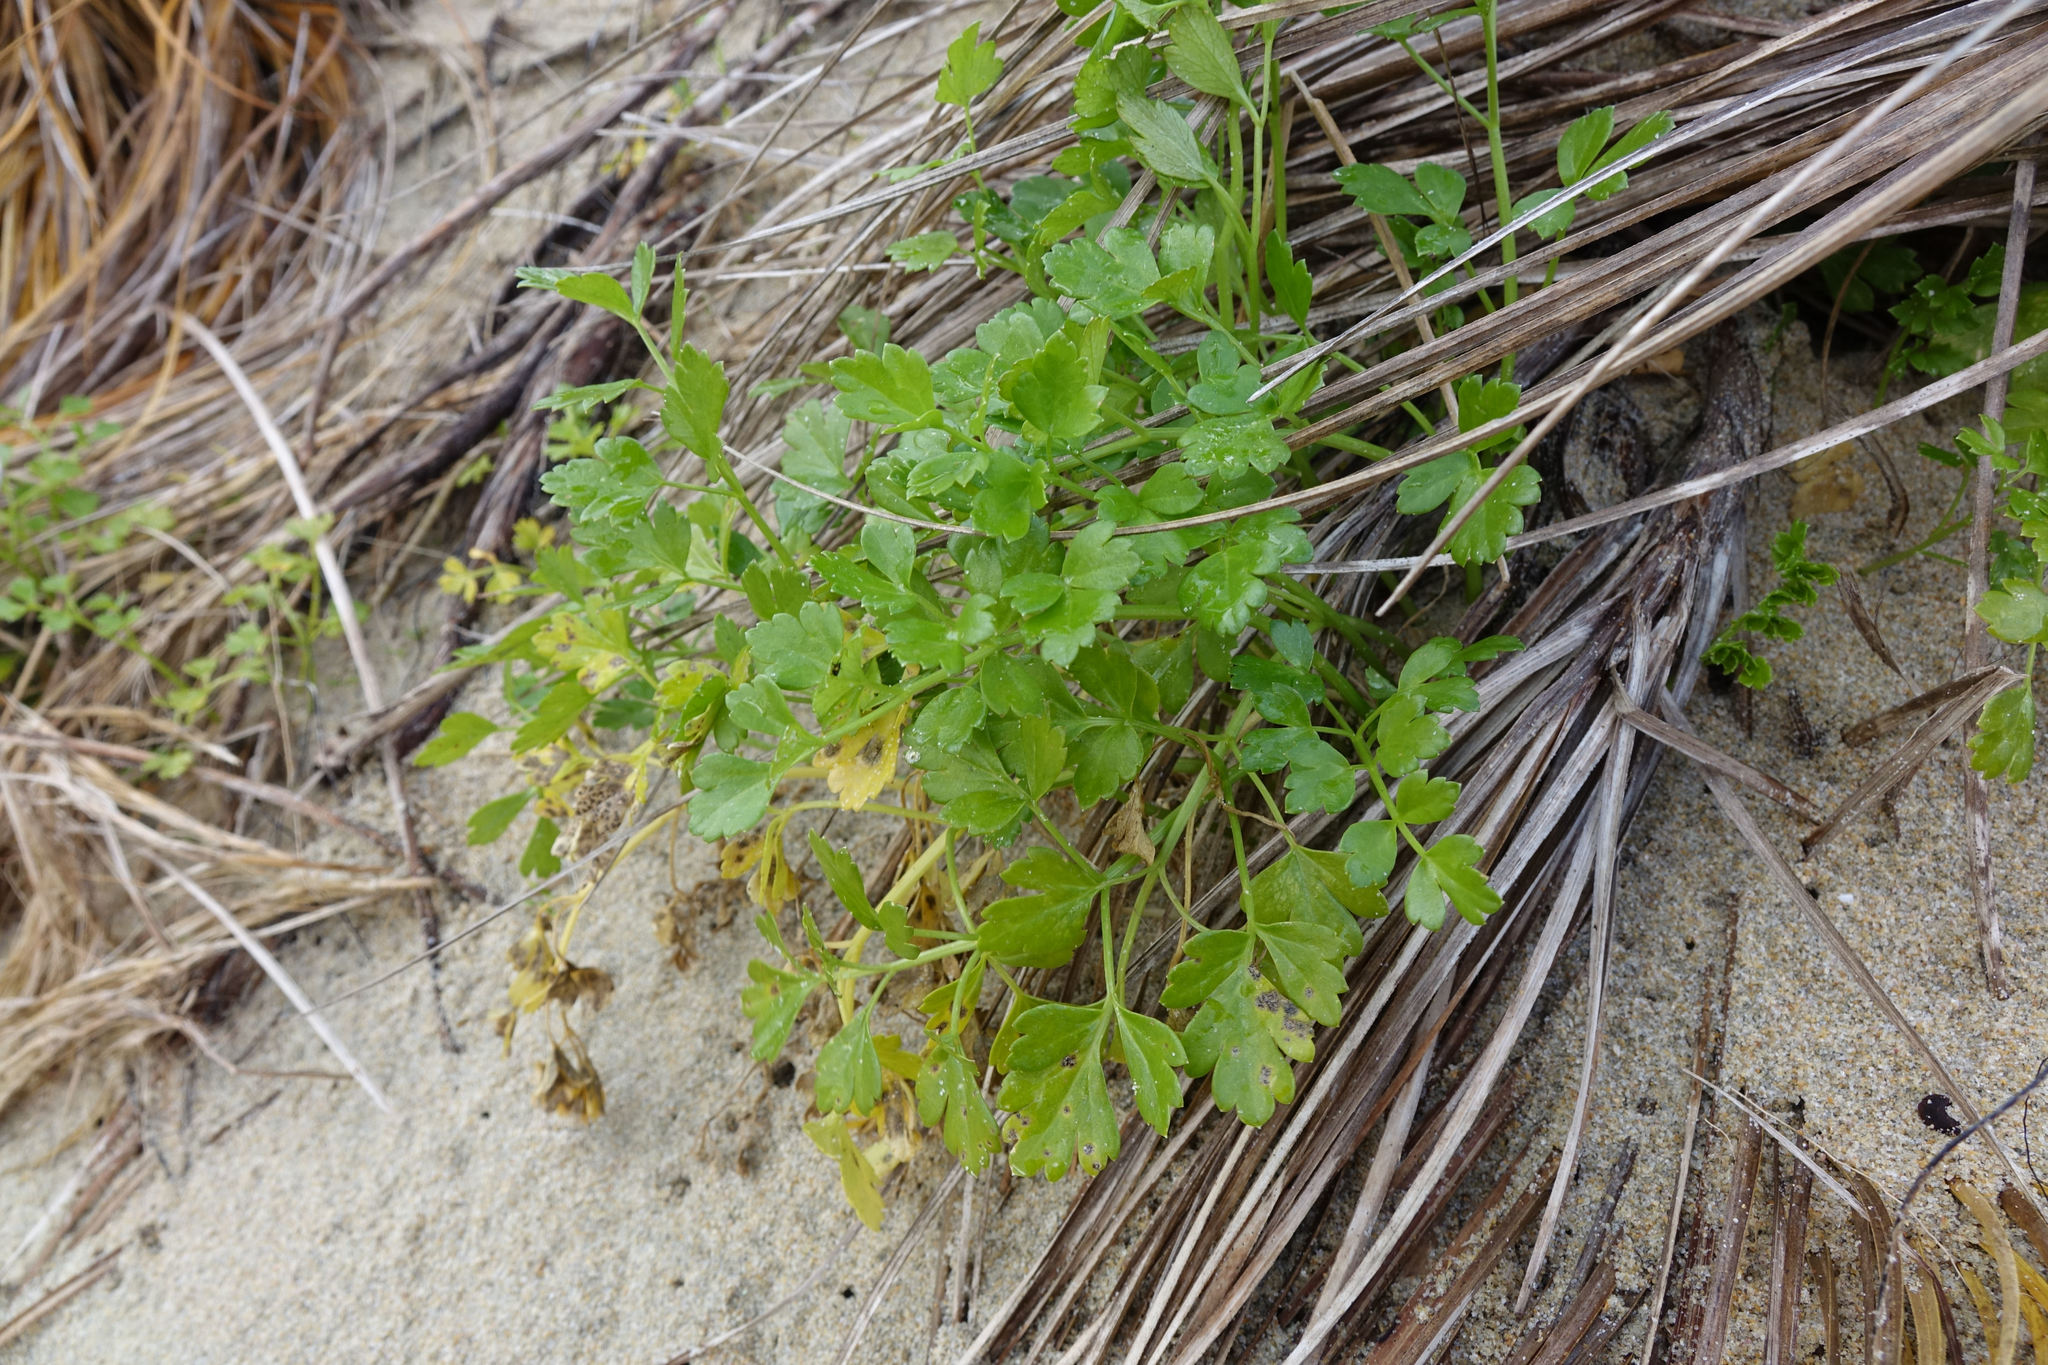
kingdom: Plantae
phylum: Tracheophyta
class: Magnoliopsida
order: Apiales
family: Apiaceae
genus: Apium
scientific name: Apium prostratum
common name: Prostrate marshwort
